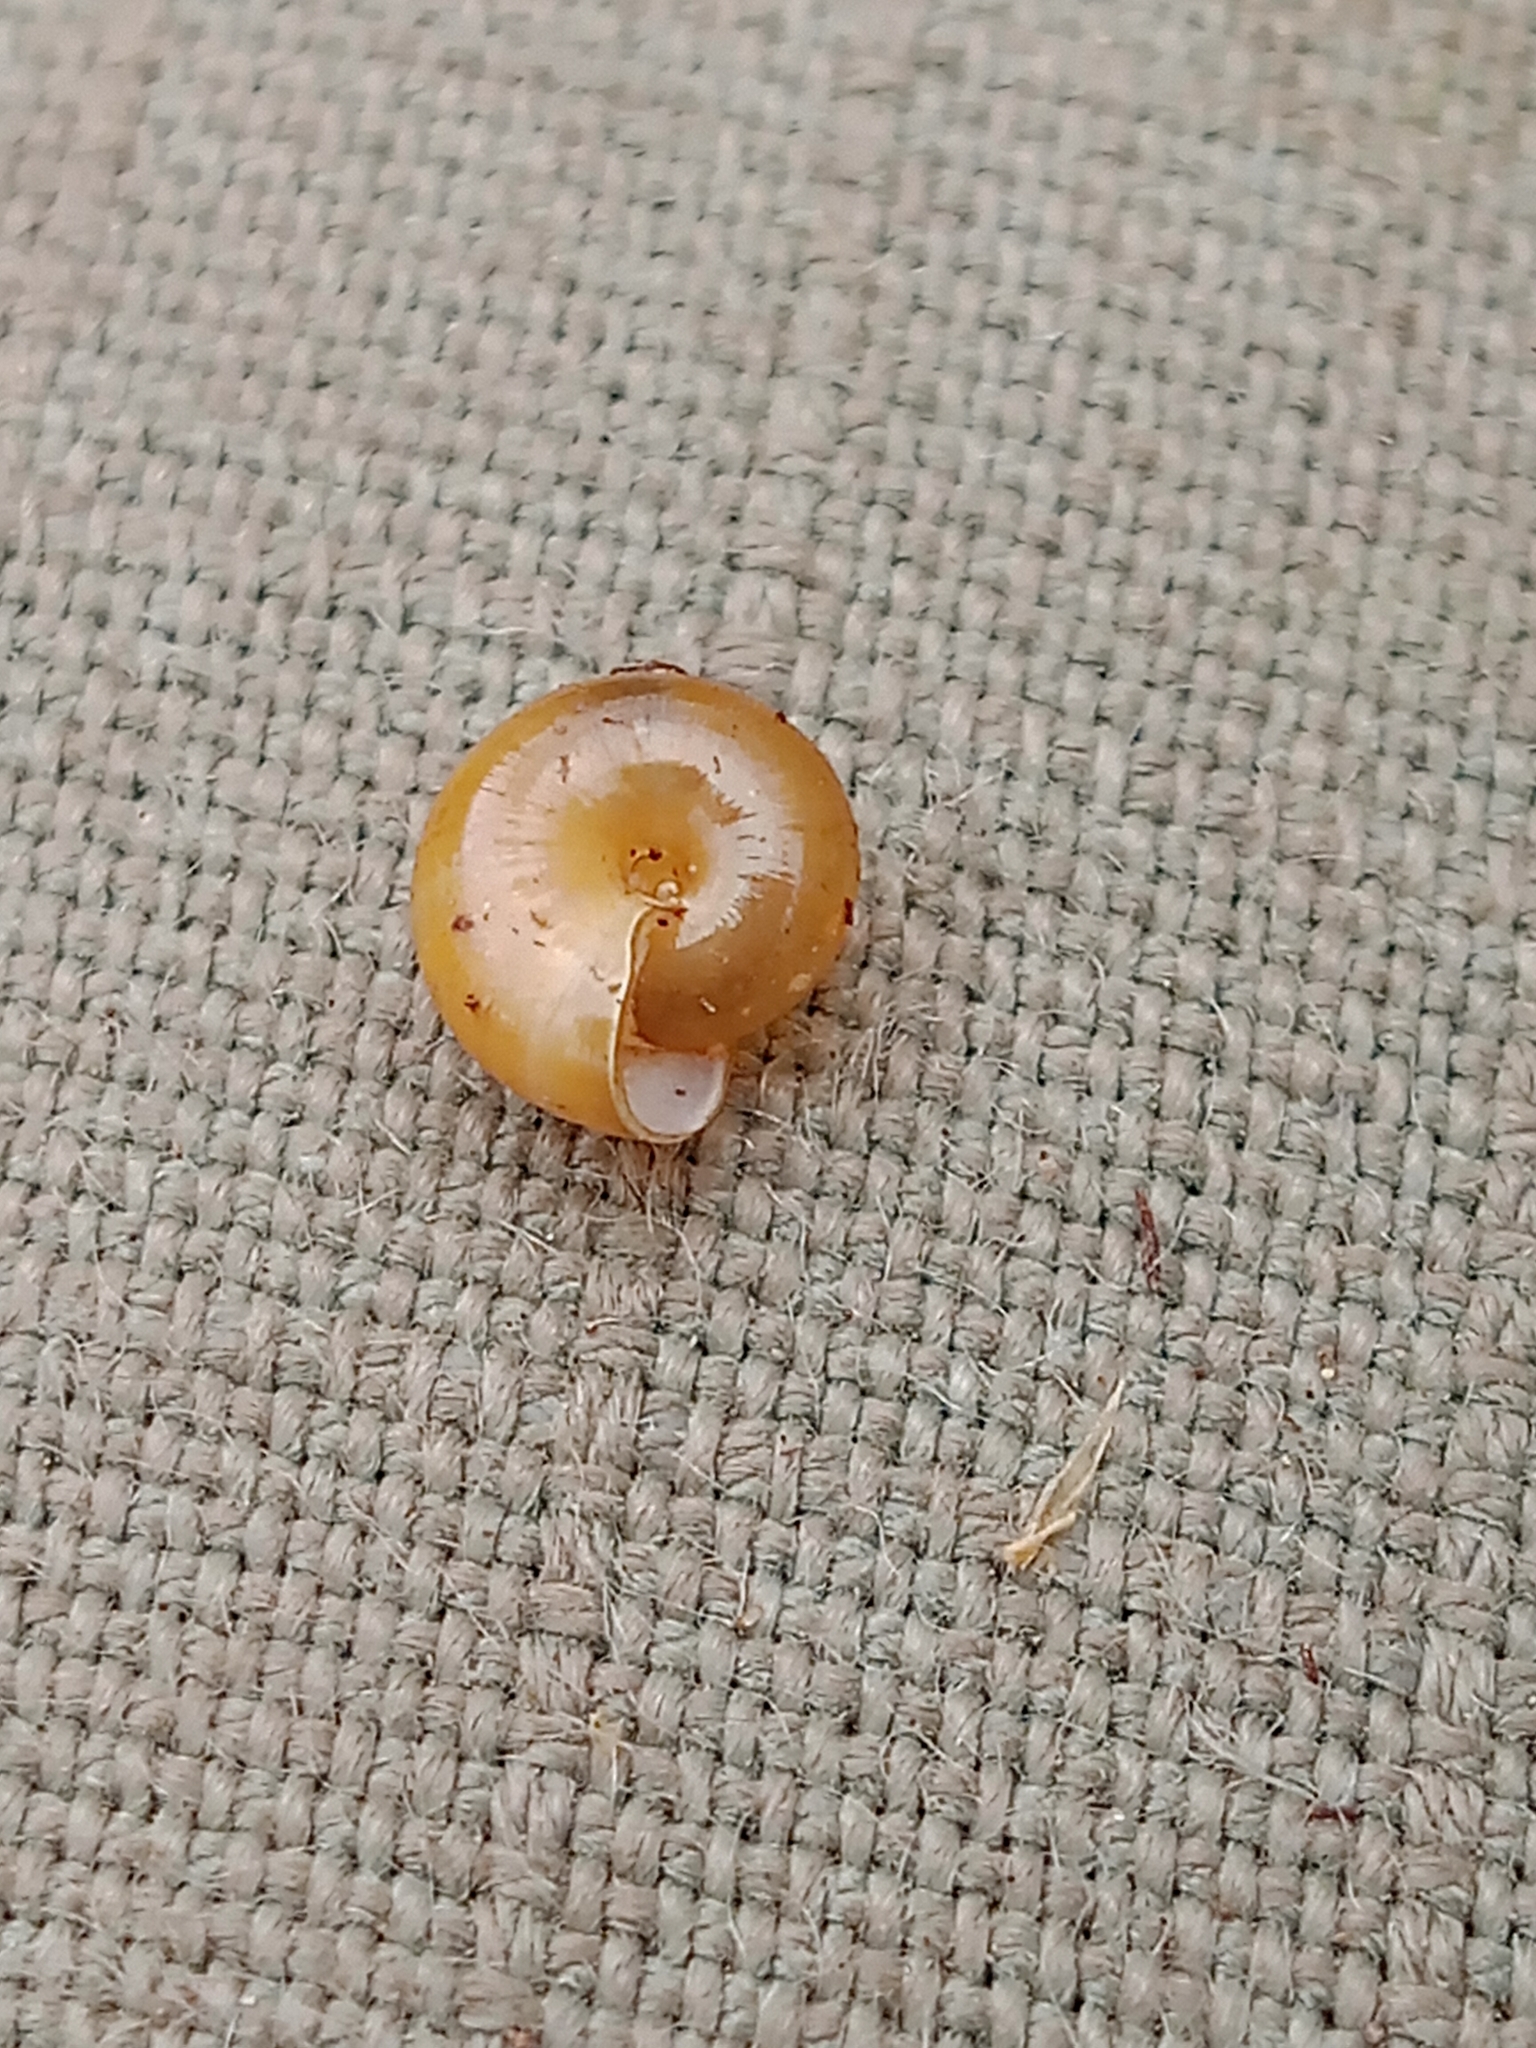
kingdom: Animalia
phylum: Mollusca
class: Gastropoda
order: Stylommatophora
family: Gastrodontidae
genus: Perpolita
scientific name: Perpolita hammonis
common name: Rayed glass snail
